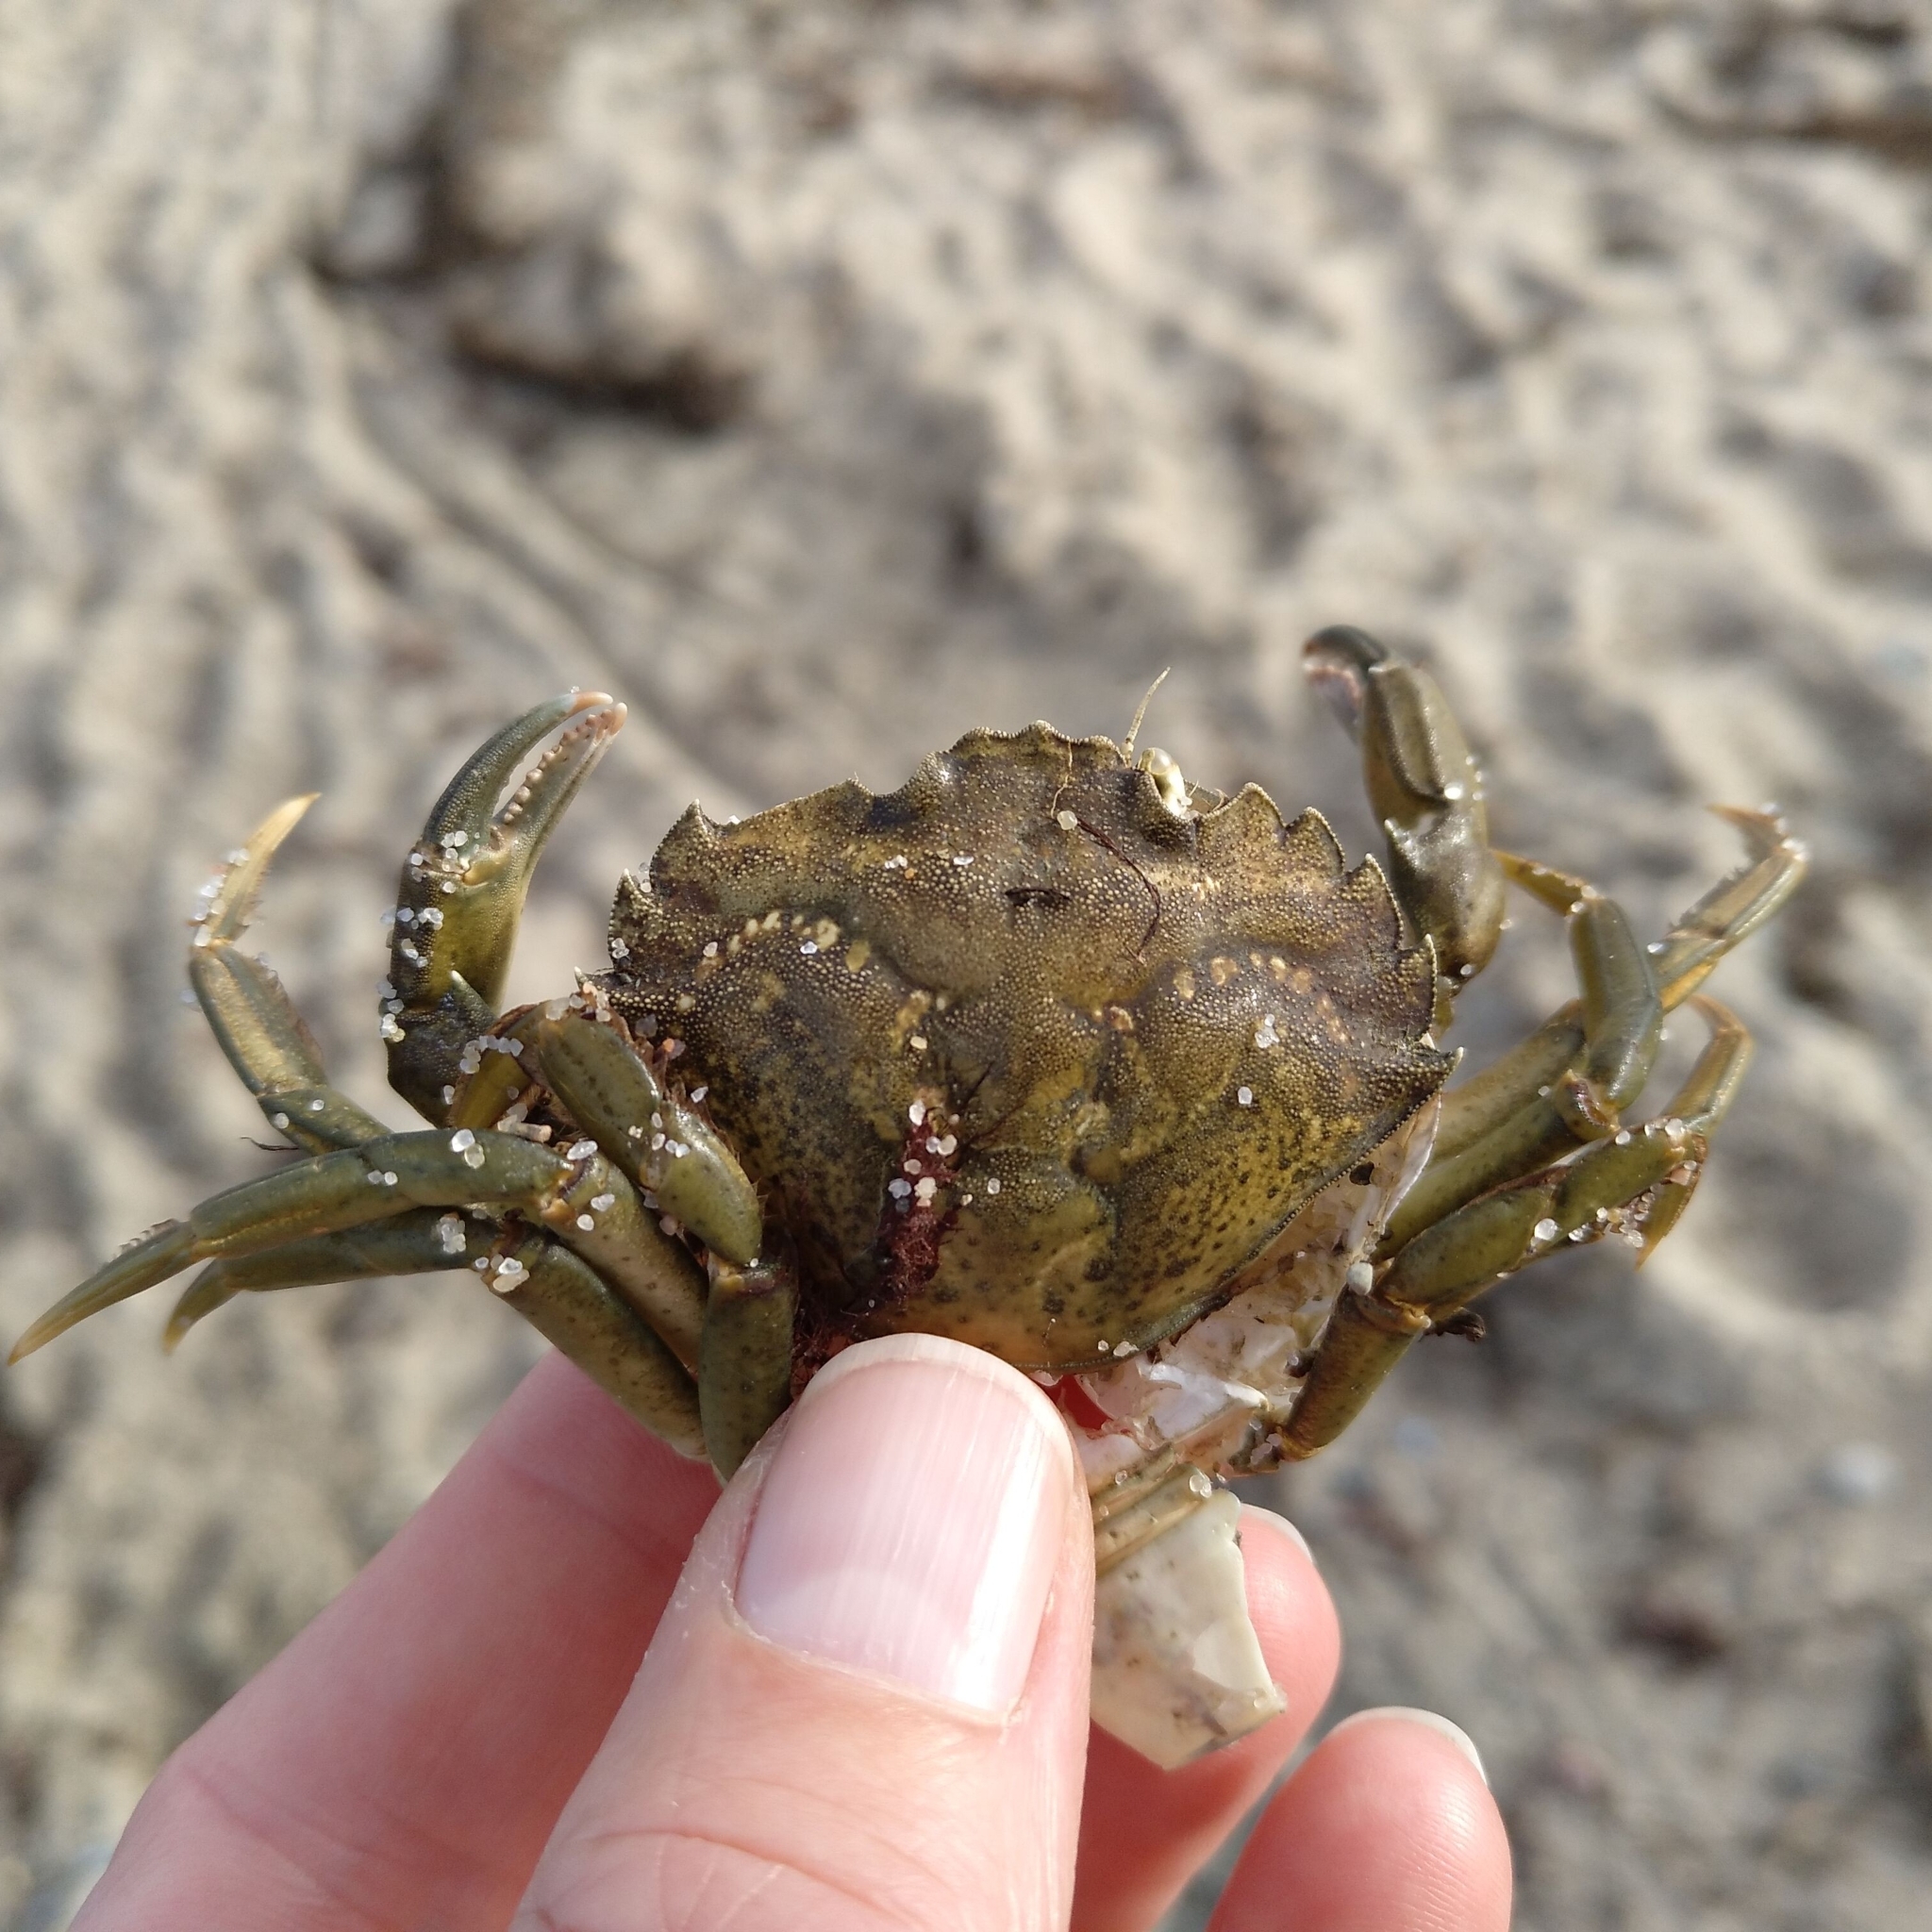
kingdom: Animalia
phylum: Arthropoda
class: Malacostraca
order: Decapoda
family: Carcinidae
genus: Carcinus
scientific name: Carcinus maenas
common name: European green crab
